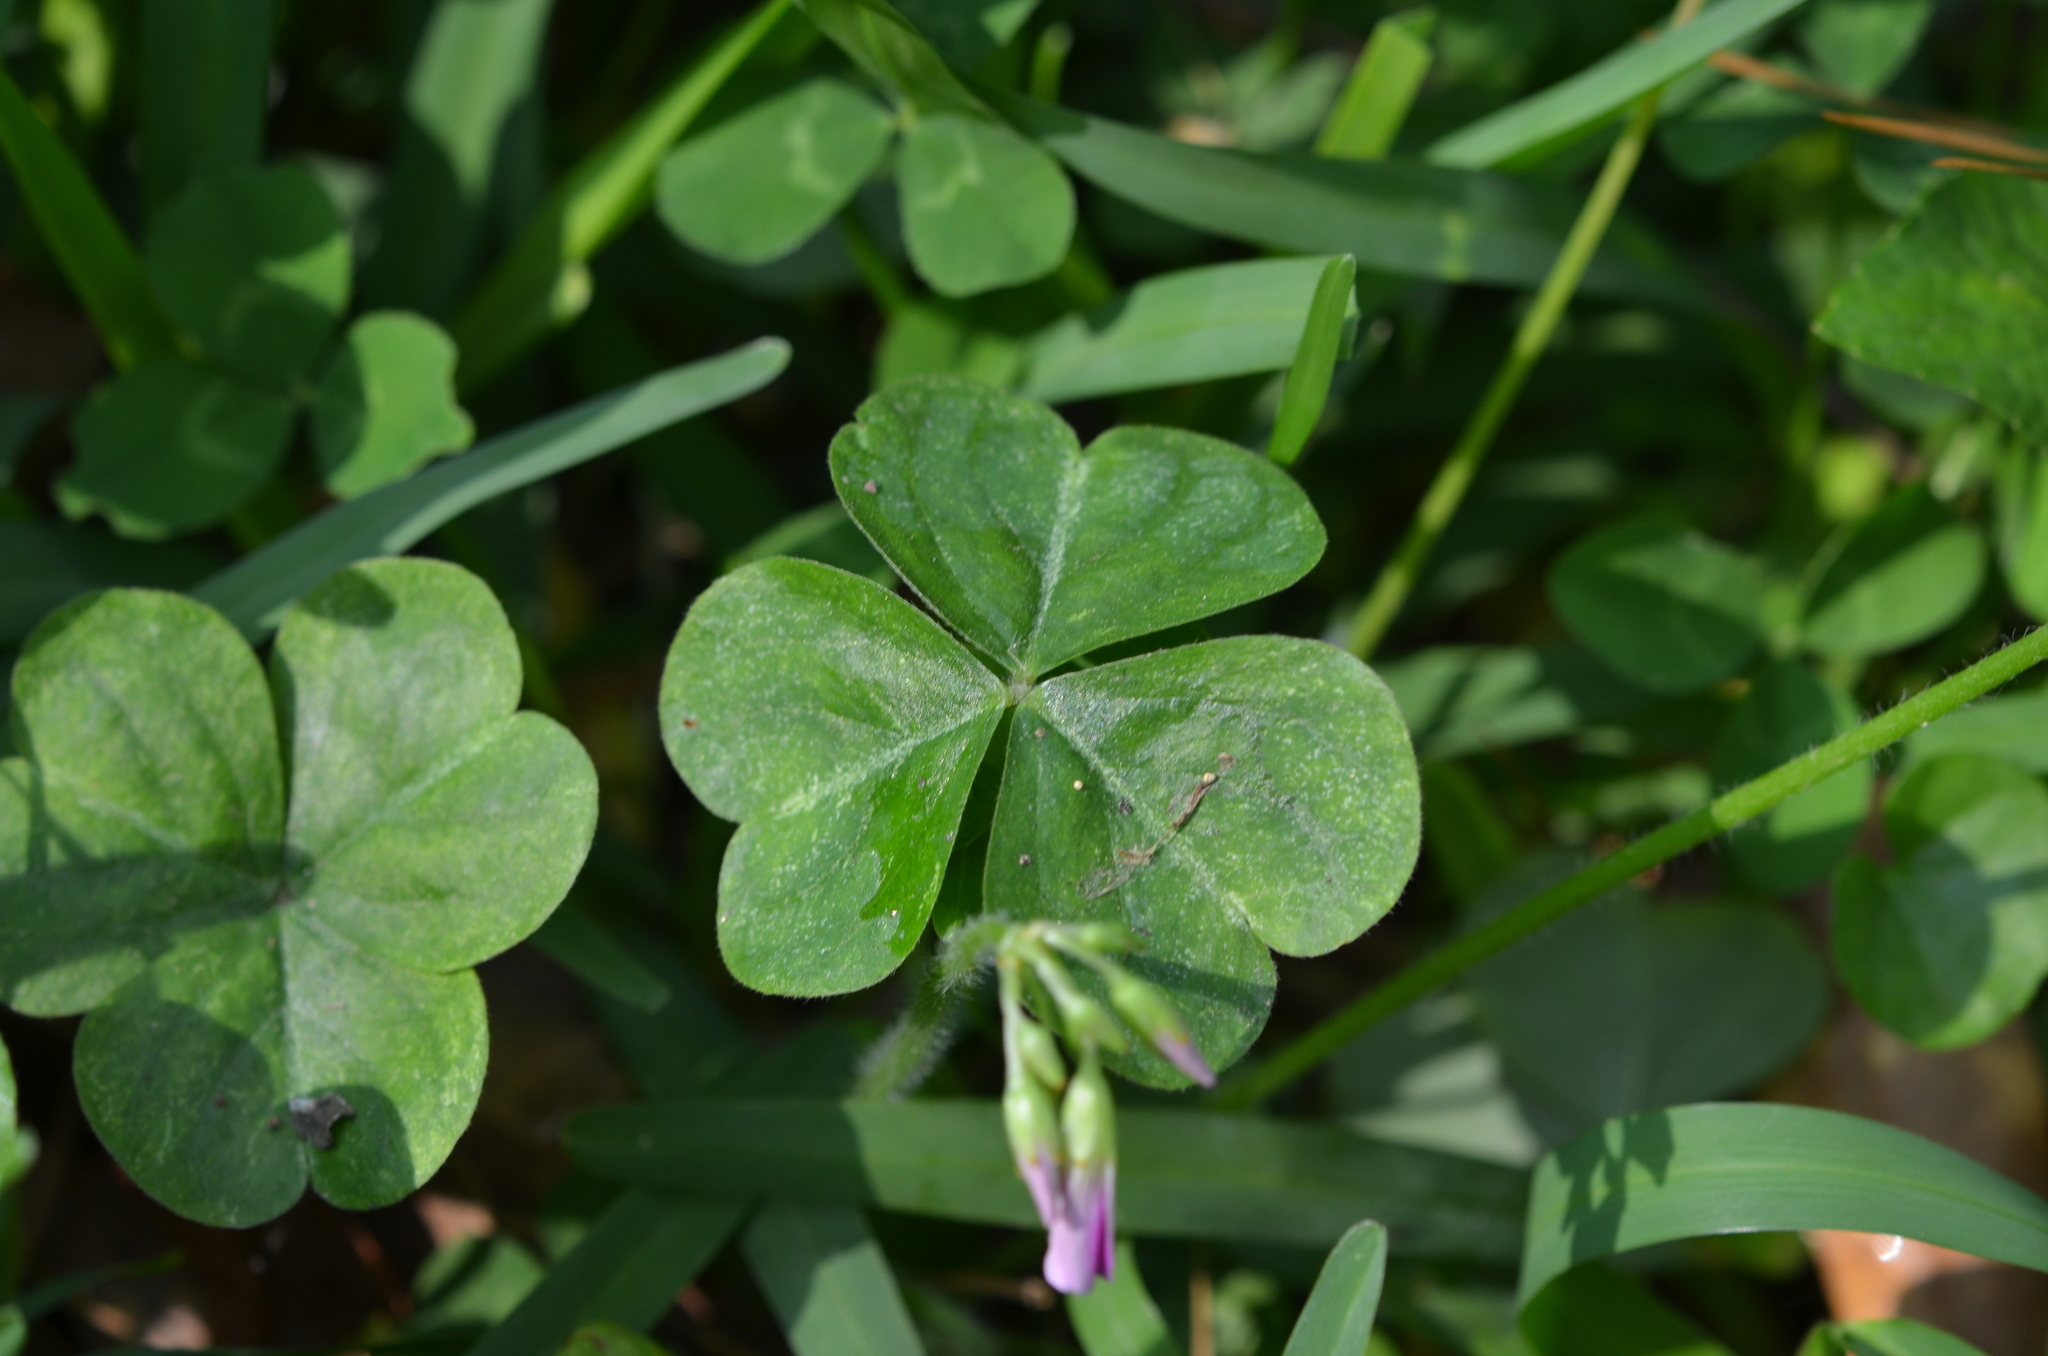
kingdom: Plantae
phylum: Tracheophyta
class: Magnoliopsida
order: Oxalidales
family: Oxalidaceae
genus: Oxalis
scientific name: Oxalis debilis
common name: Large-flowered pink-sorrel
